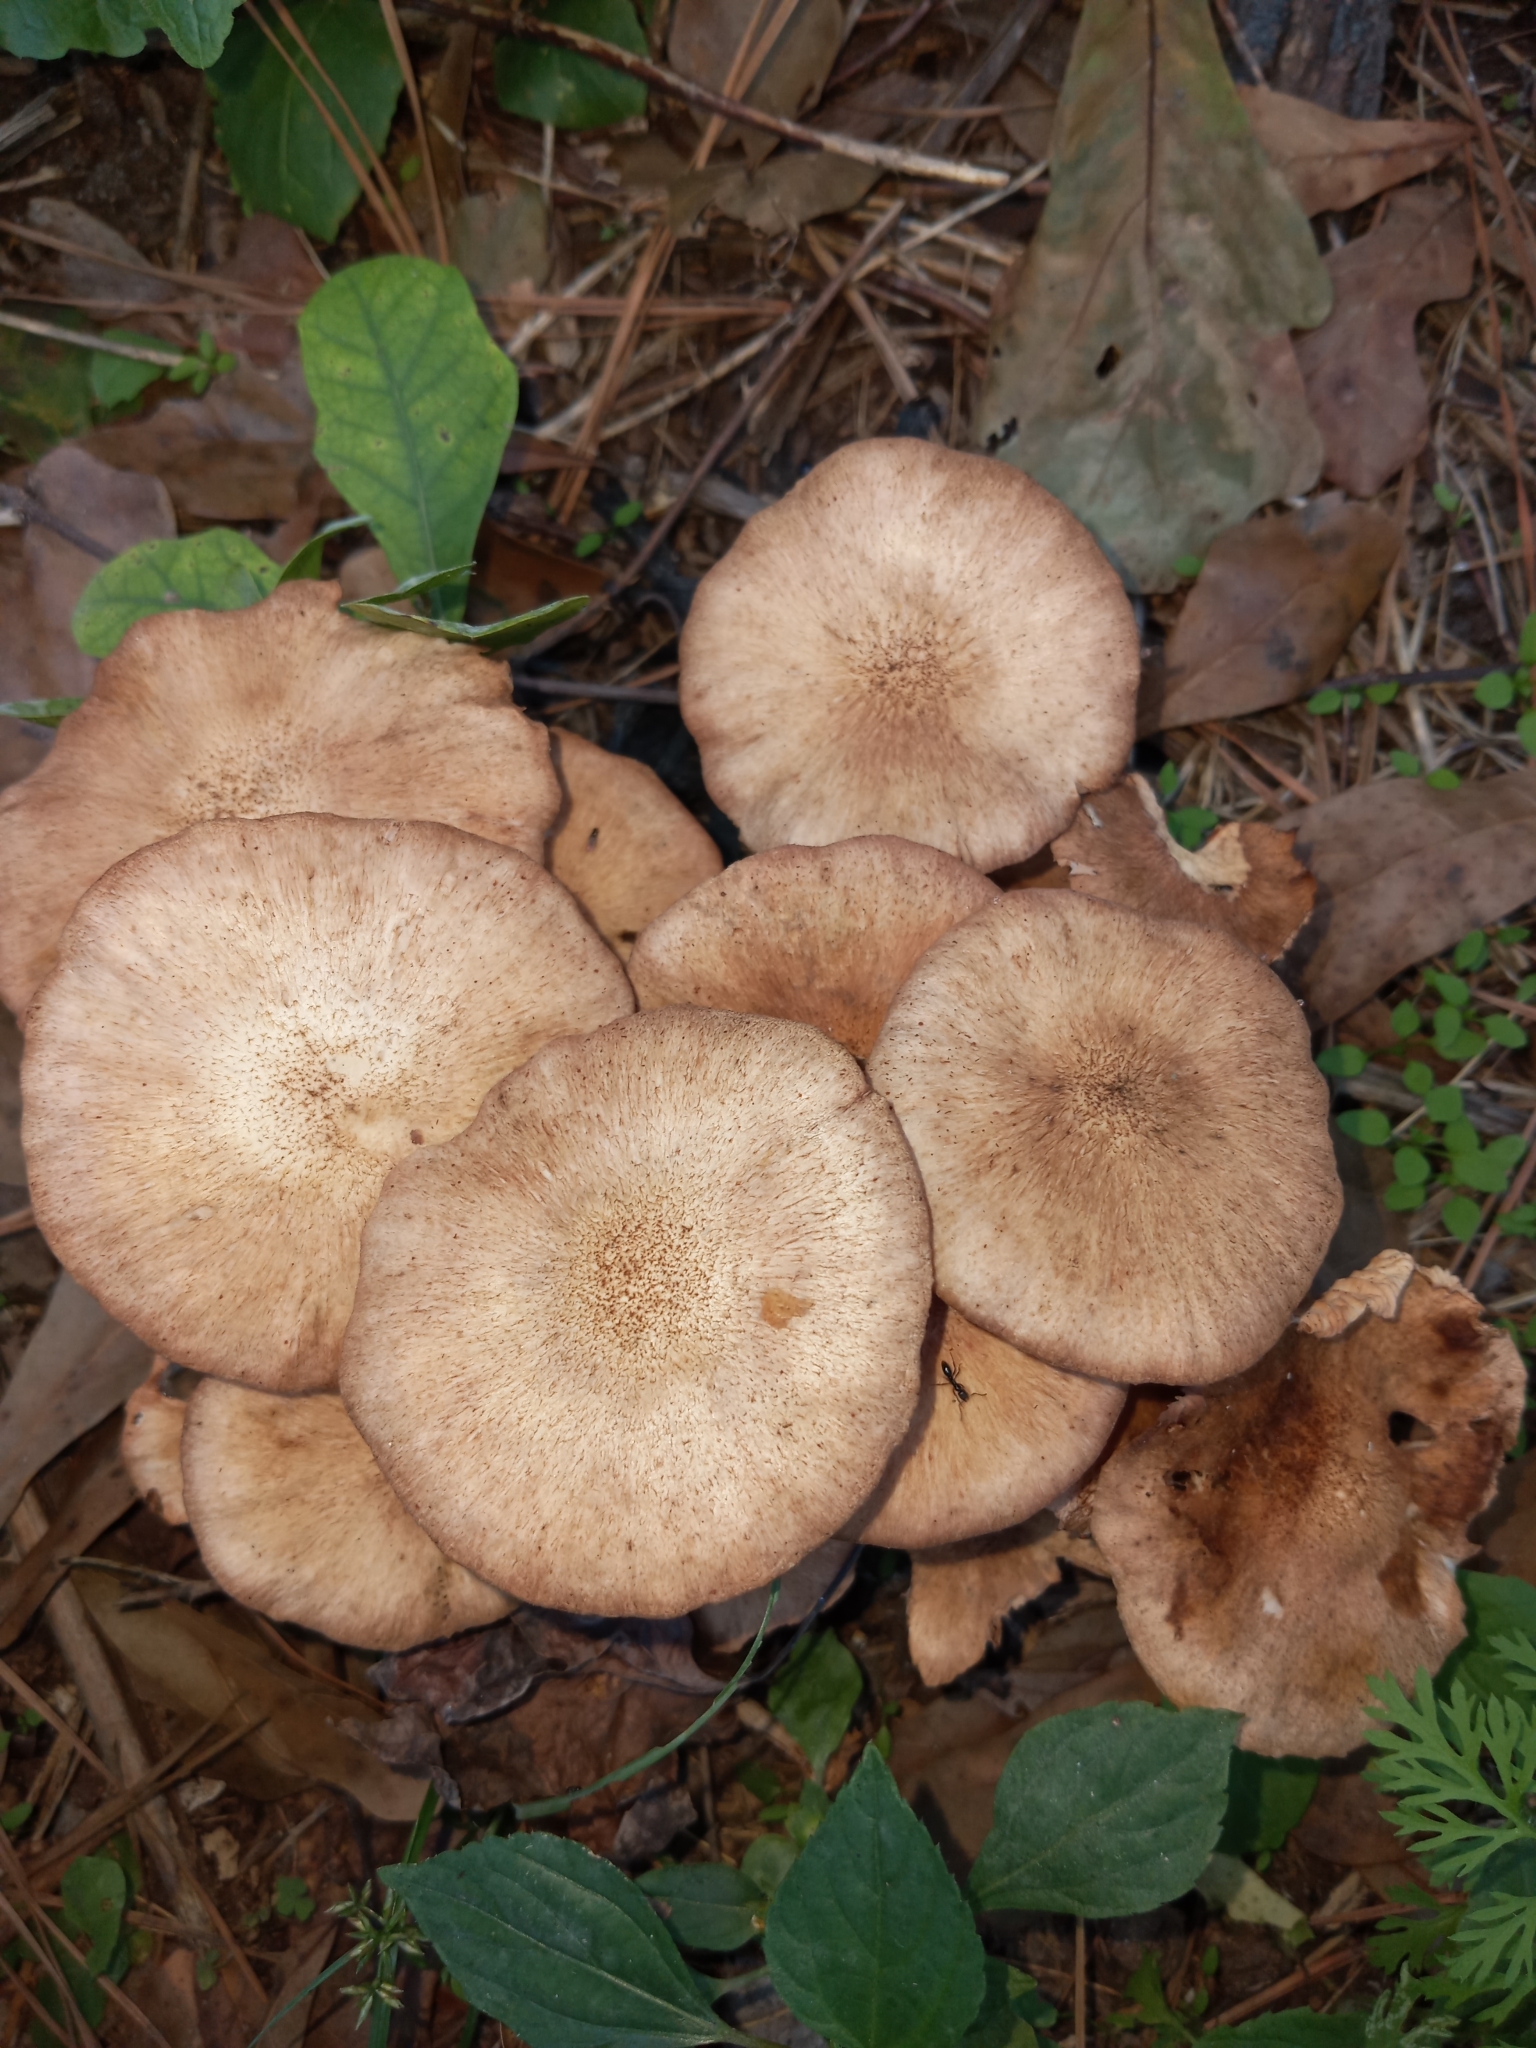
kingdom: Fungi
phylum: Basidiomycota
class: Agaricomycetes
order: Agaricales
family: Physalacriaceae
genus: Desarmillaria
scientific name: Desarmillaria caespitosa
